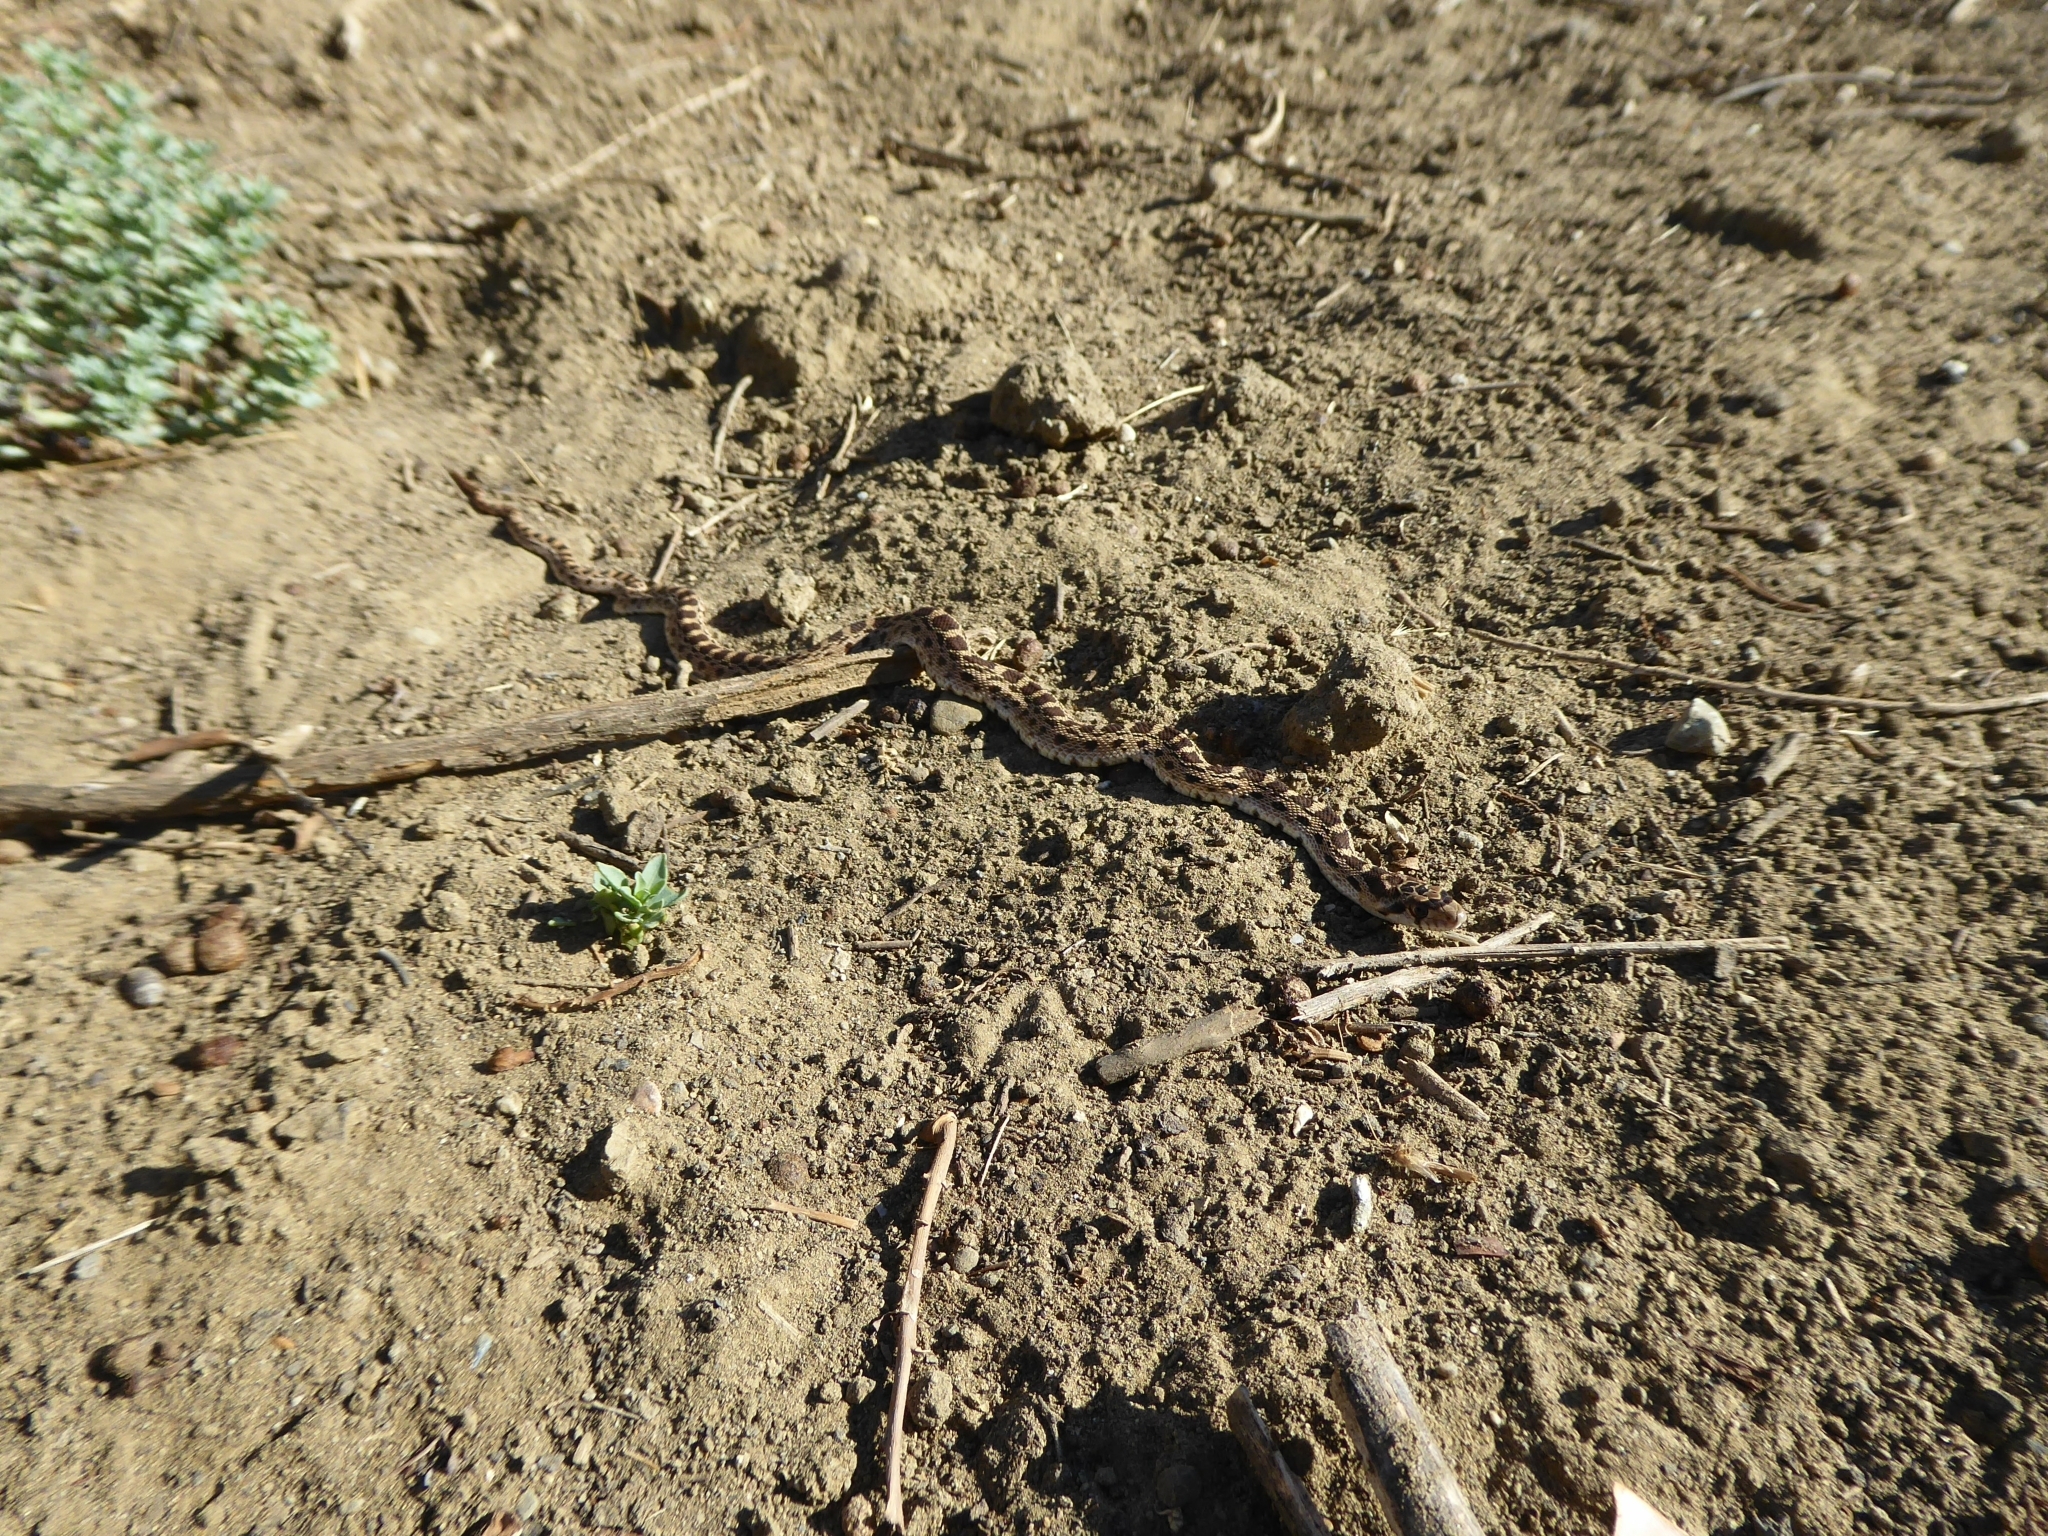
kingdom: Animalia
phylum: Chordata
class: Squamata
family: Colubridae
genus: Pituophis
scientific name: Pituophis catenifer
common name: Gopher snake
